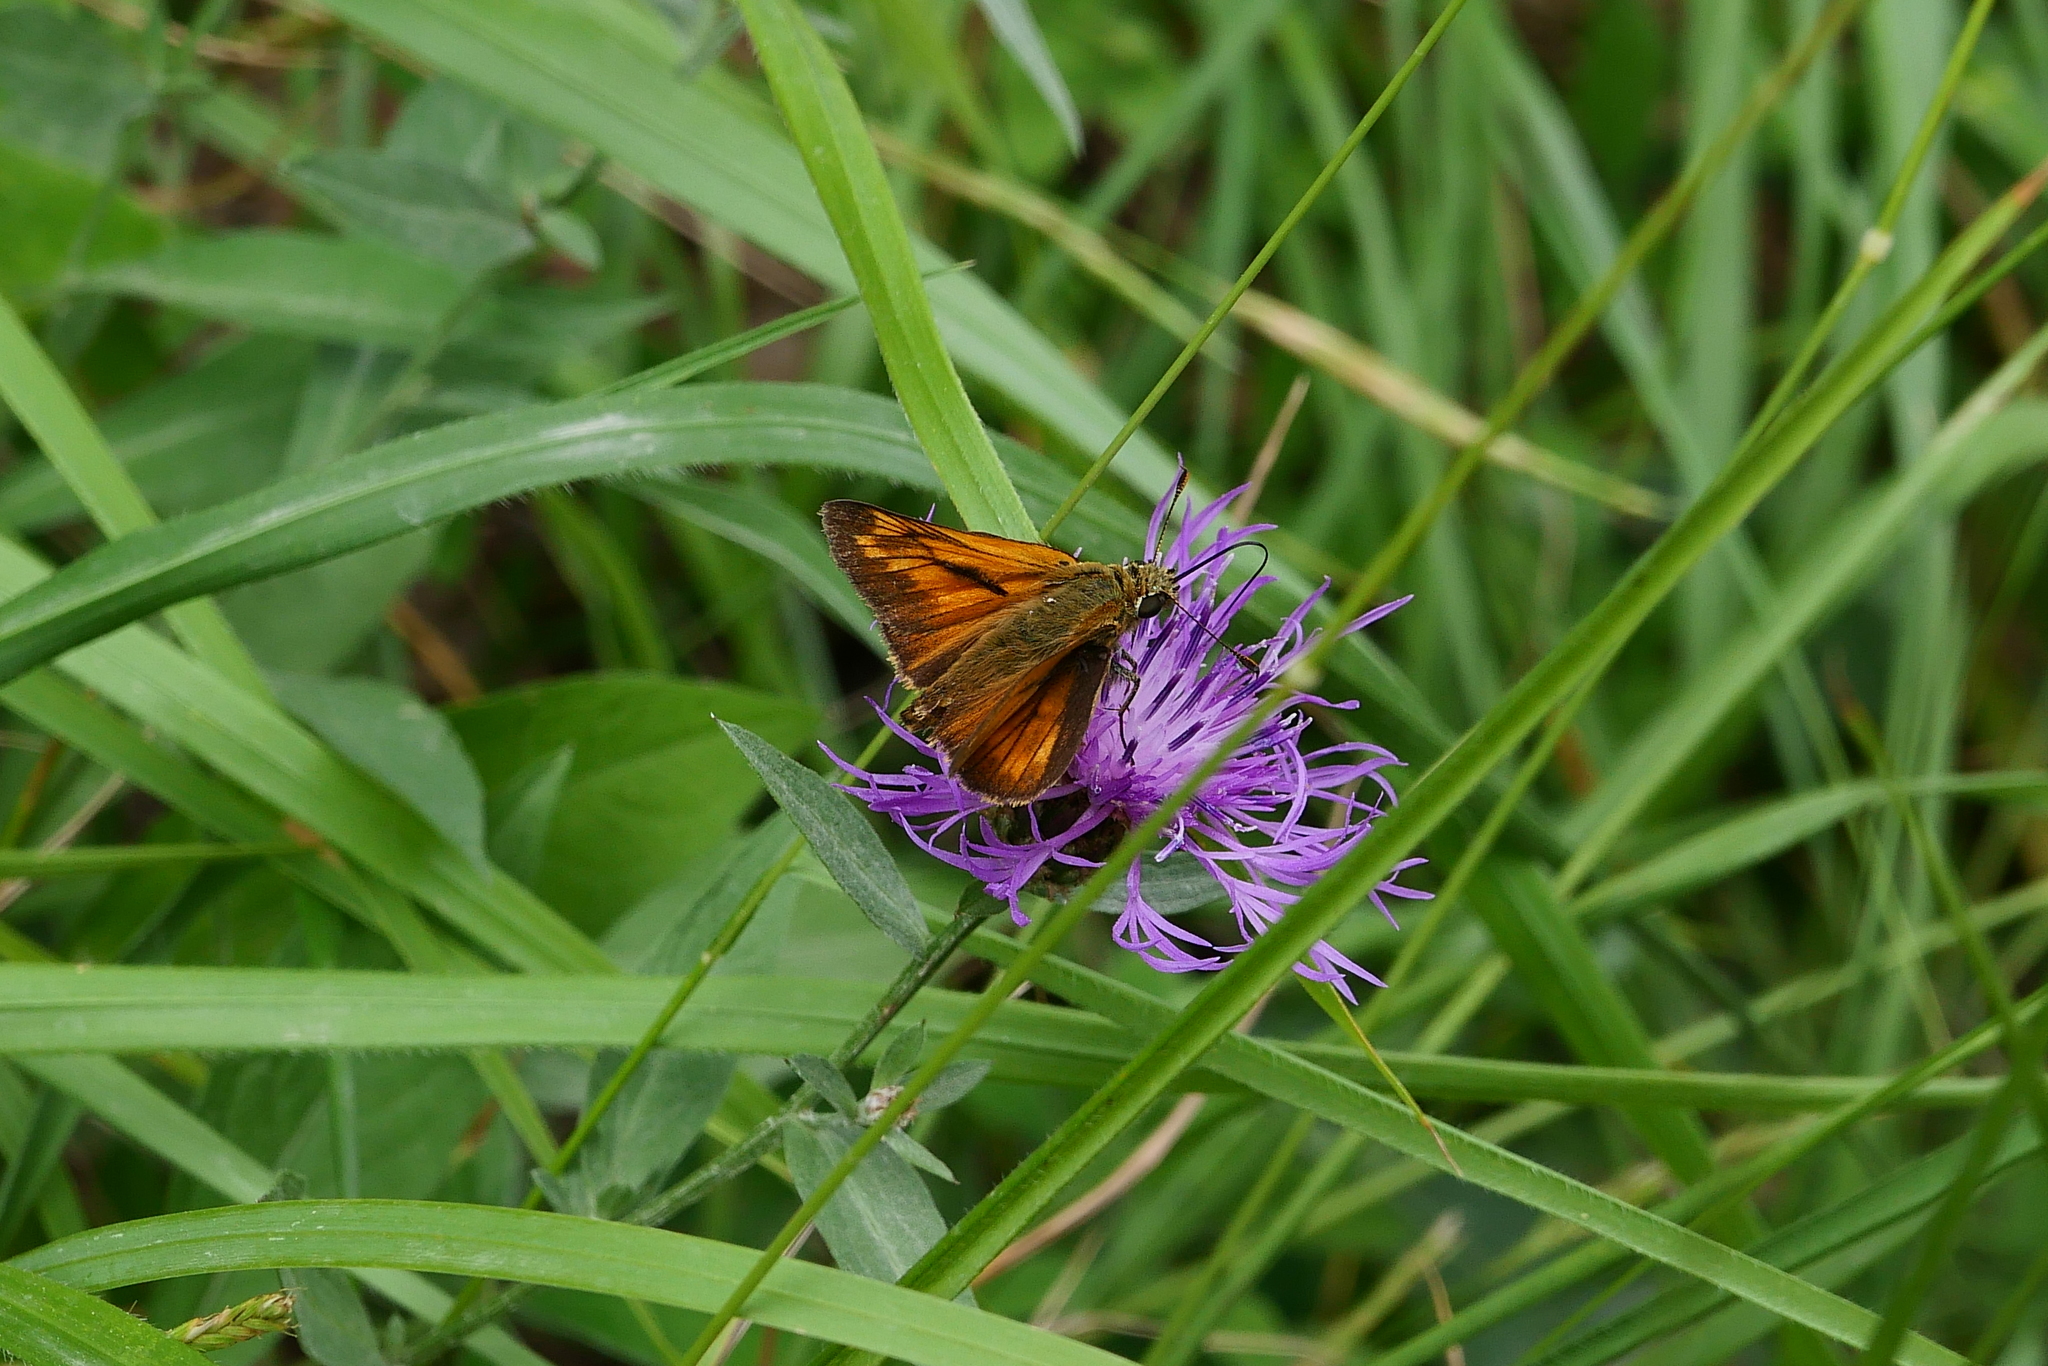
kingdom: Animalia
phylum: Arthropoda
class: Insecta
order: Lepidoptera
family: Hesperiidae
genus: Ochlodes
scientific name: Ochlodes venata
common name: Large skipper
